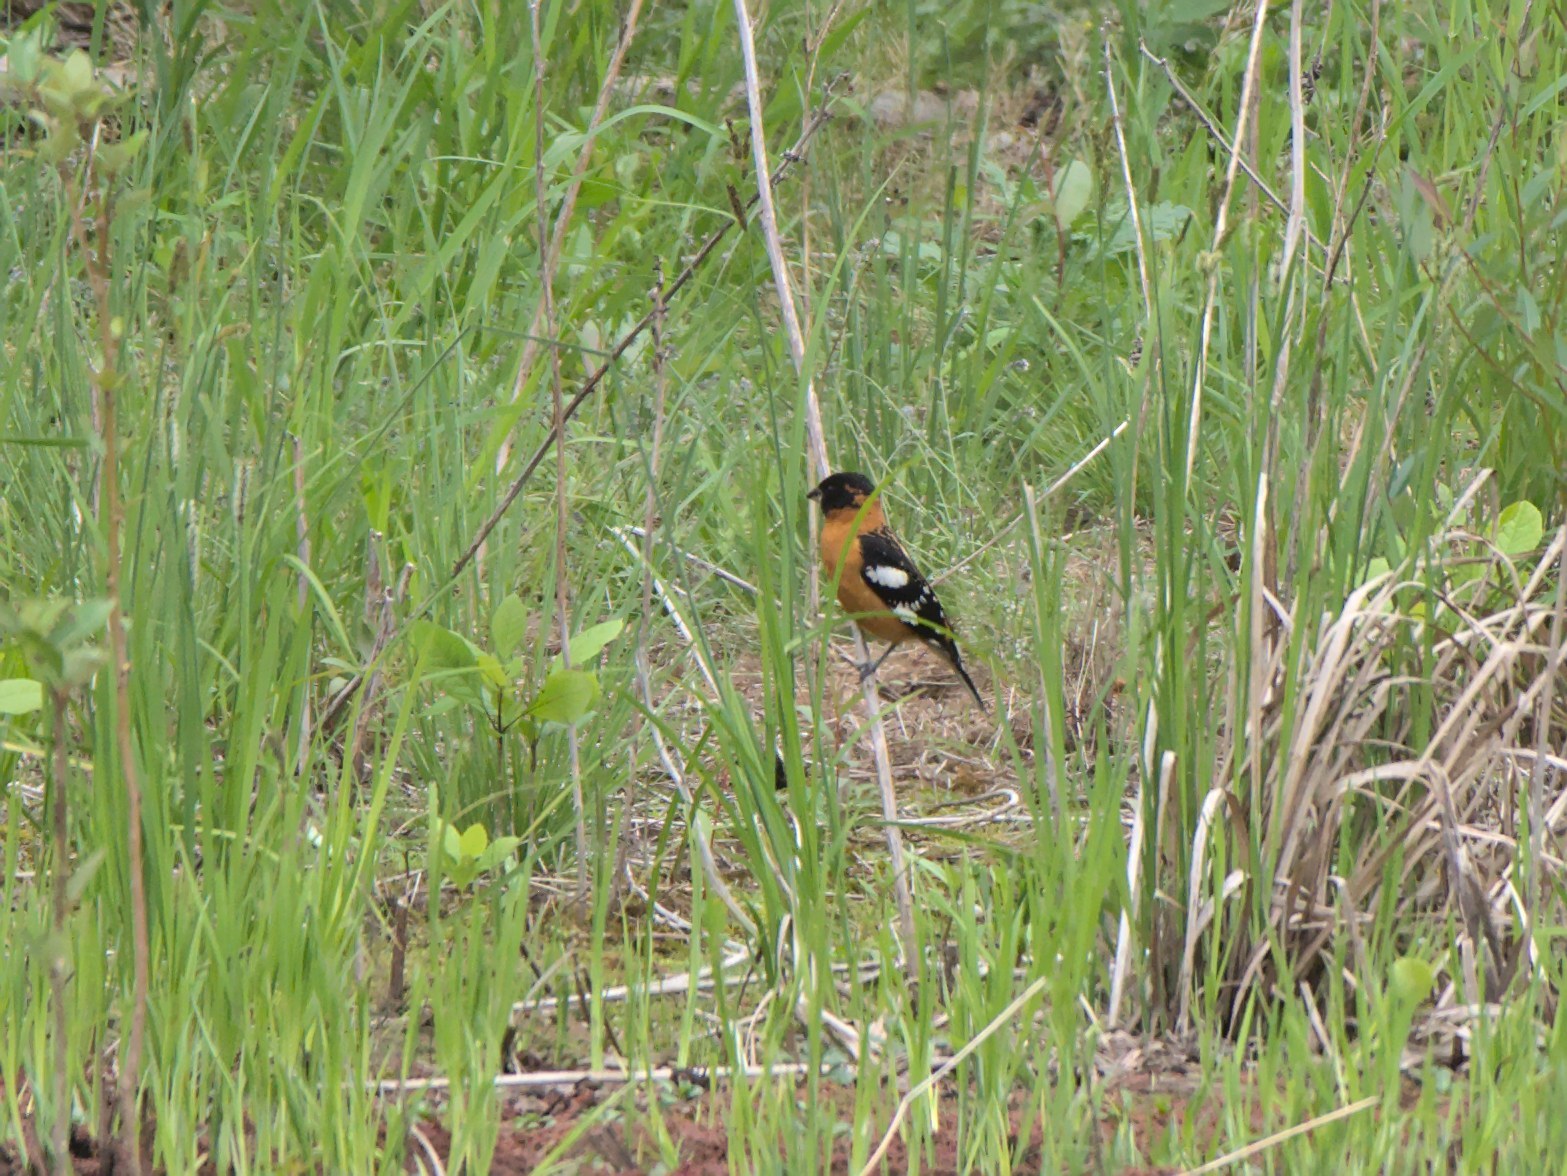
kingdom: Animalia
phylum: Chordata
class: Aves
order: Passeriformes
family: Cardinalidae
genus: Pheucticus
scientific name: Pheucticus melanocephalus
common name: Black-headed grosbeak
